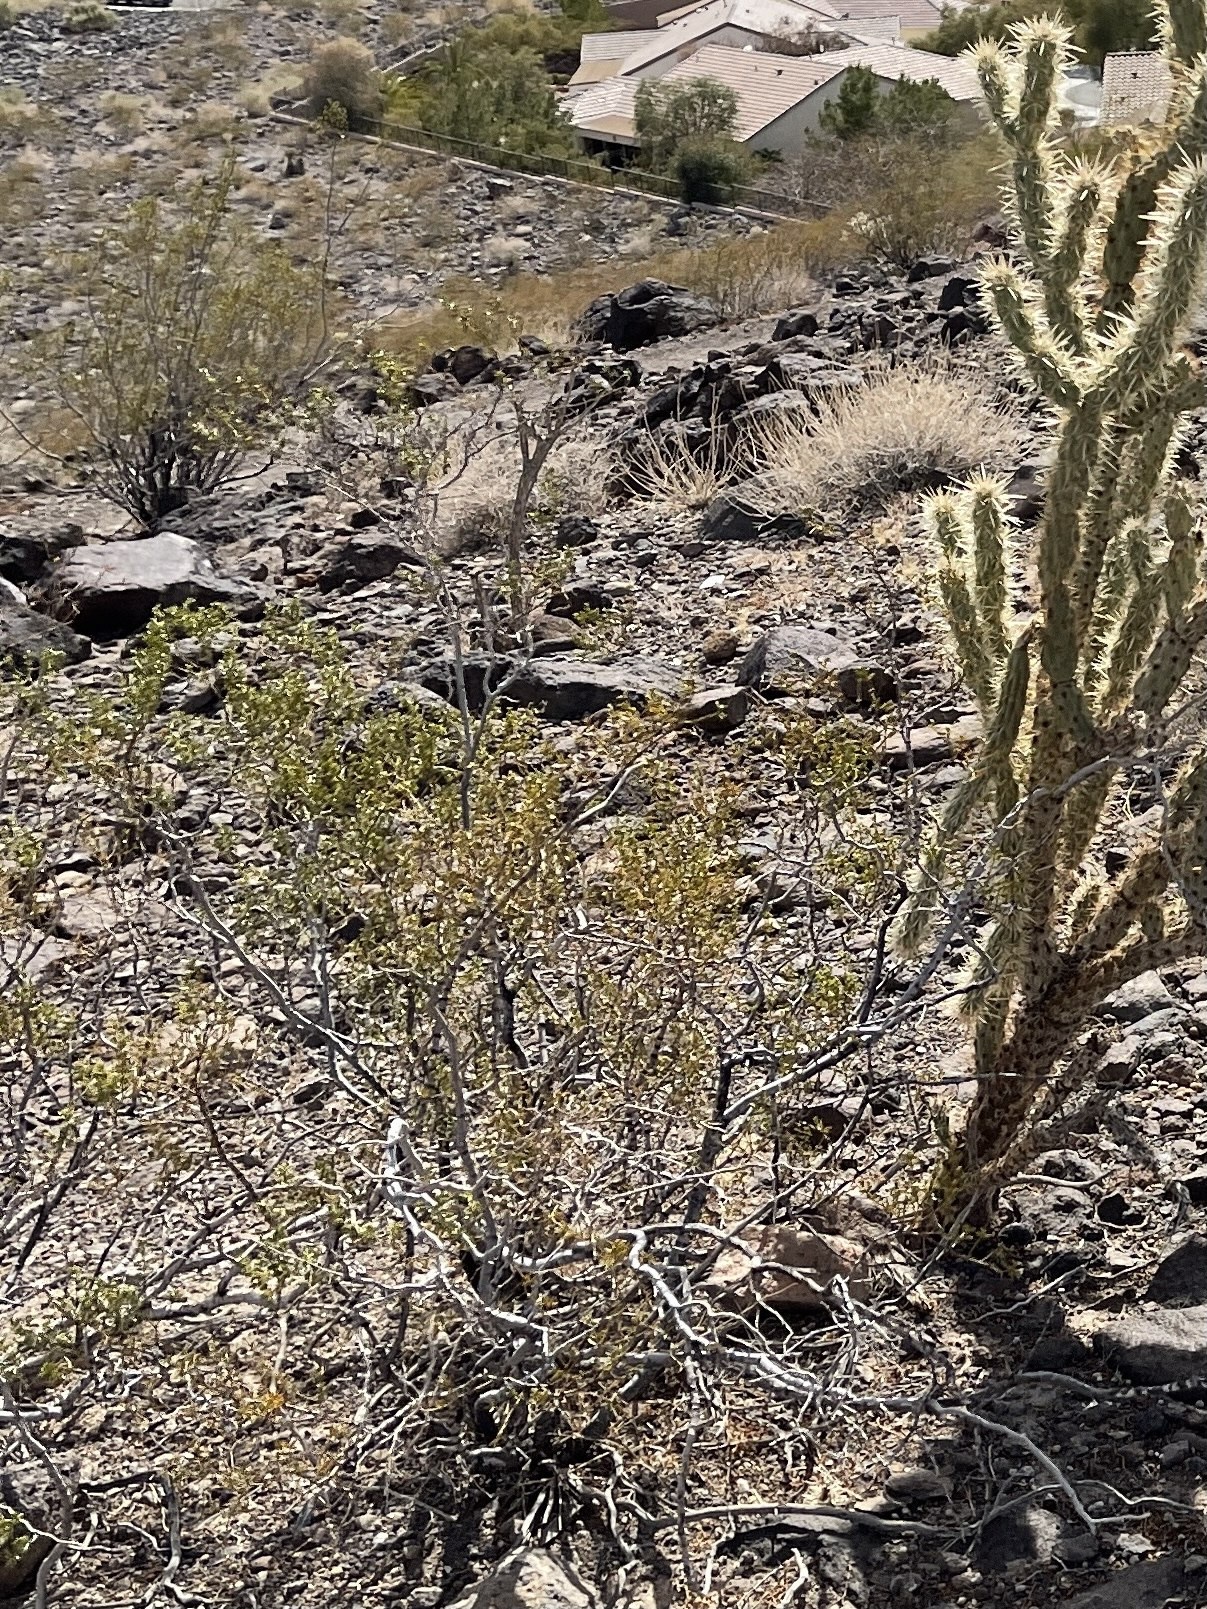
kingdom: Plantae
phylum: Tracheophyta
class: Magnoliopsida
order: Zygophyllales
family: Zygophyllaceae
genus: Larrea
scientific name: Larrea tridentata
